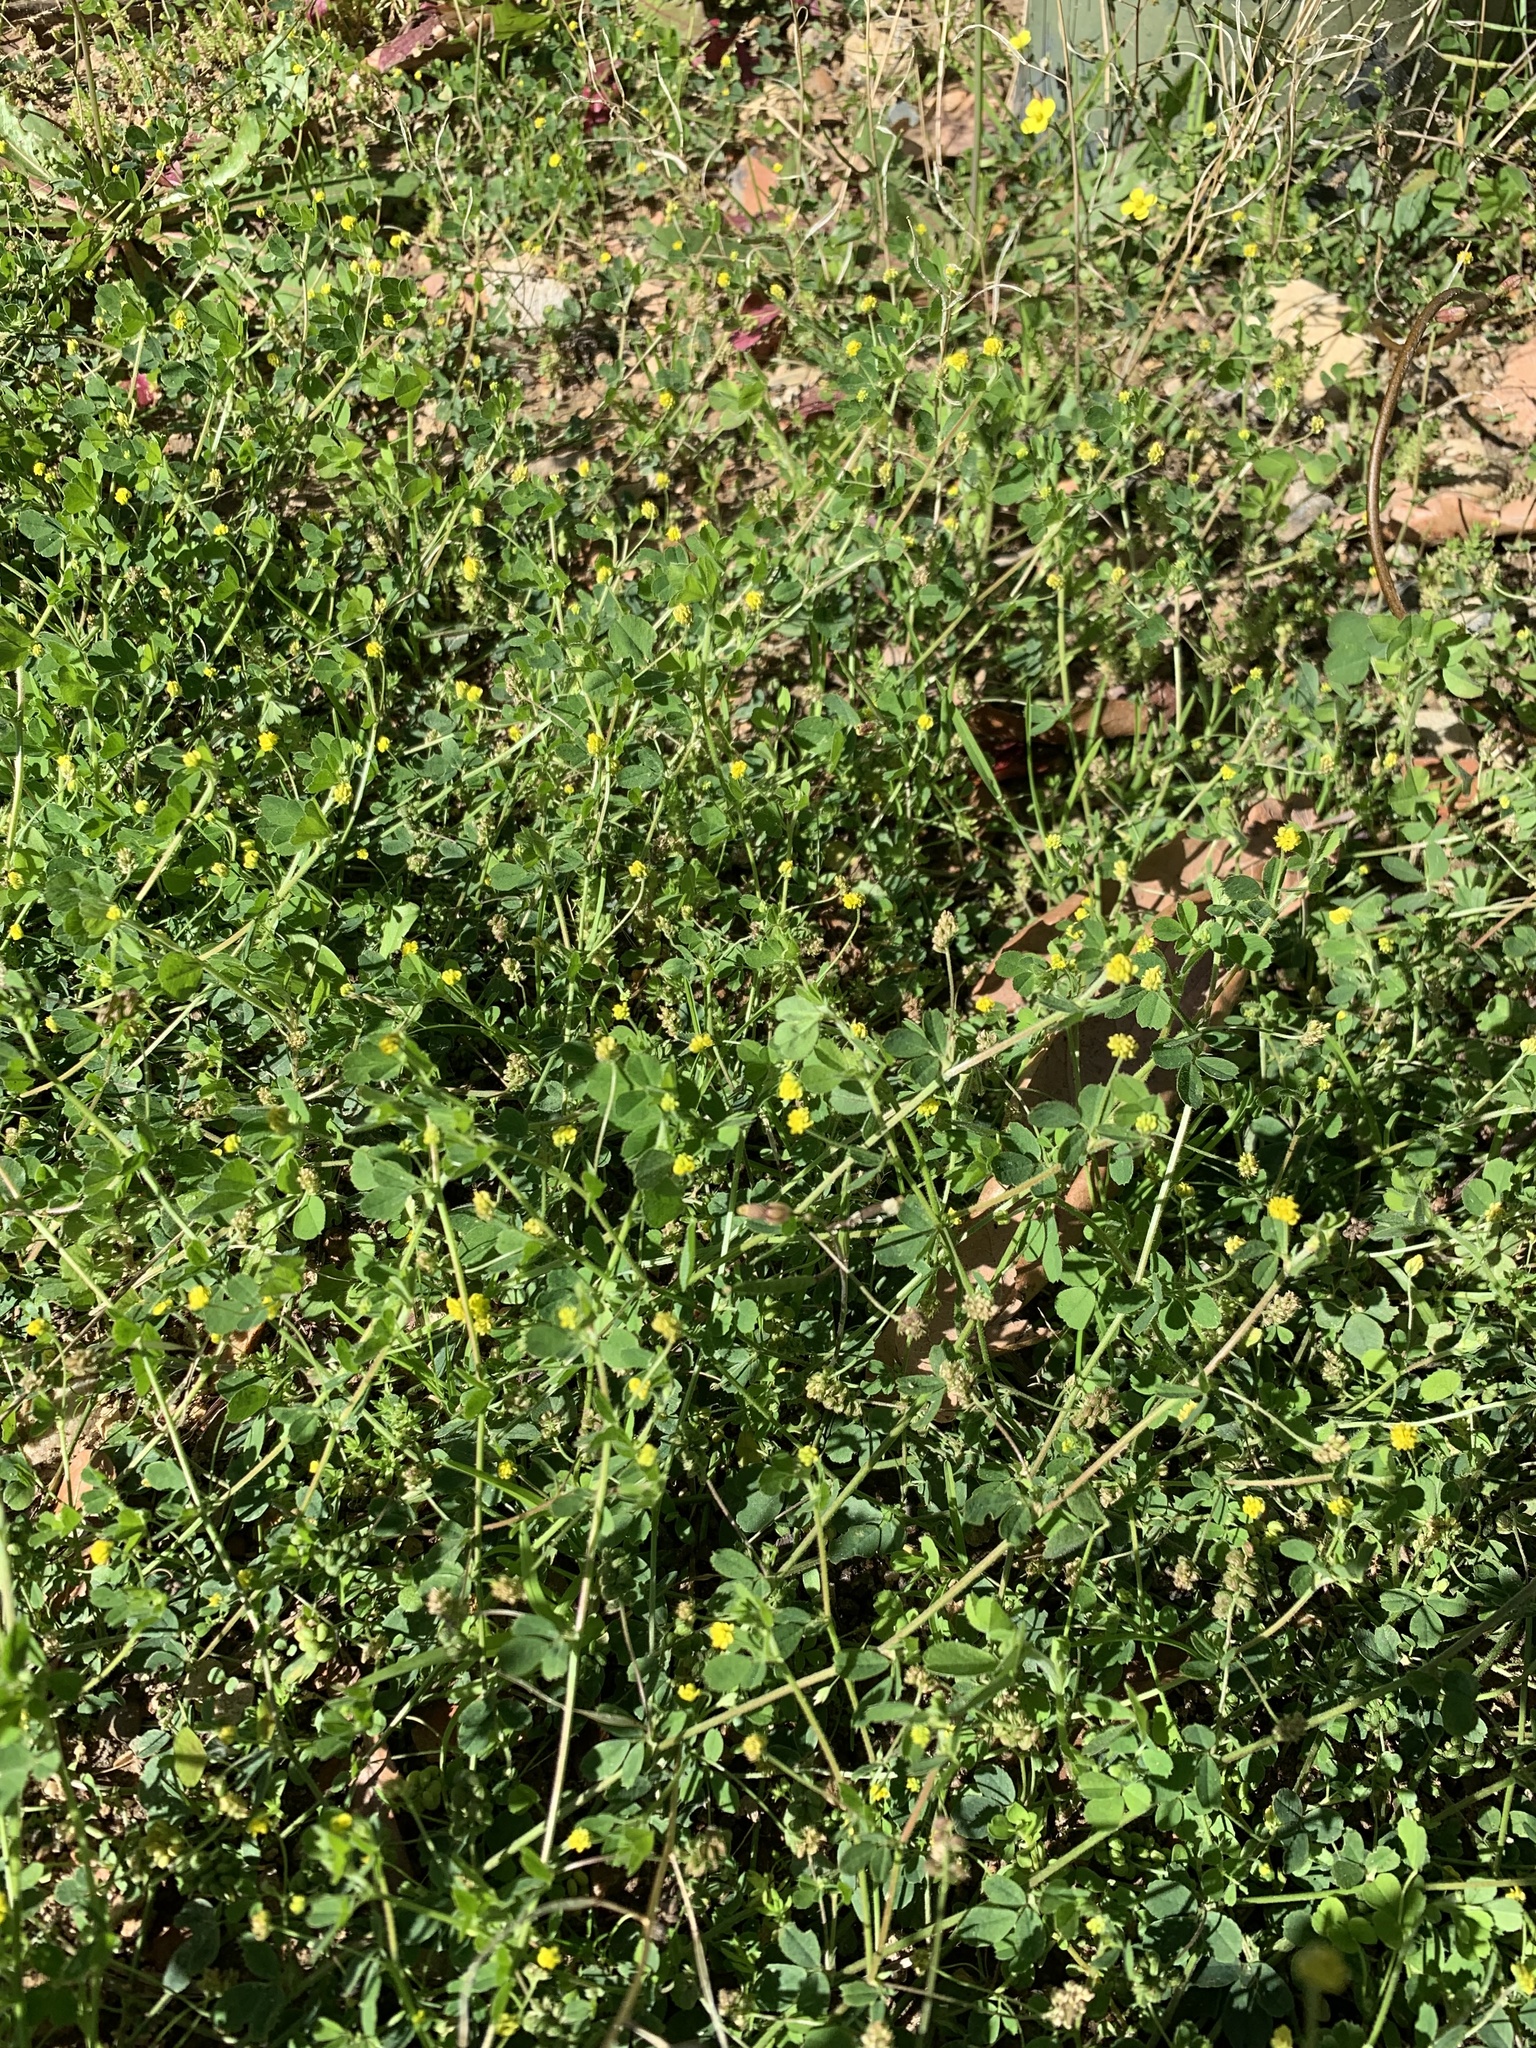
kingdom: Plantae
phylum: Tracheophyta
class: Magnoliopsida
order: Fabales
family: Fabaceae
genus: Medicago
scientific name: Medicago polymorpha
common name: Burclover
